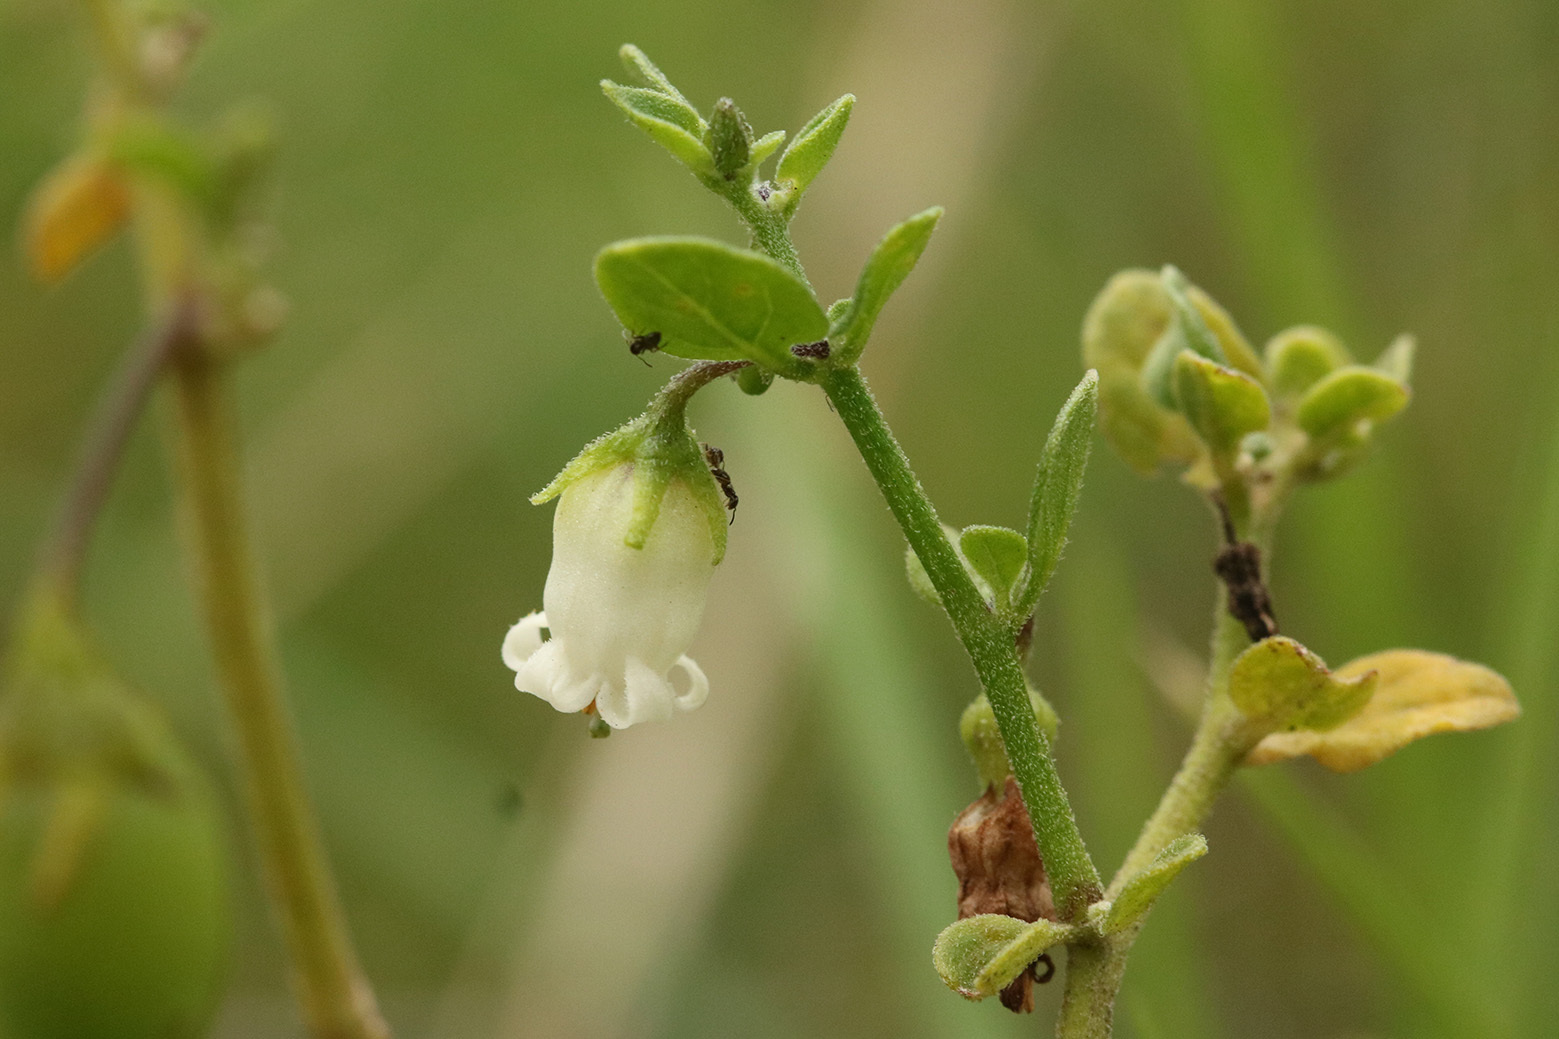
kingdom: Plantae
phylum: Tracheophyta
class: Magnoliopsida
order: Solanales
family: Solanaceae
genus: Salpichroa
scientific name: Salpichroa origanifolia
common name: Lily-of-the-valley-vine
